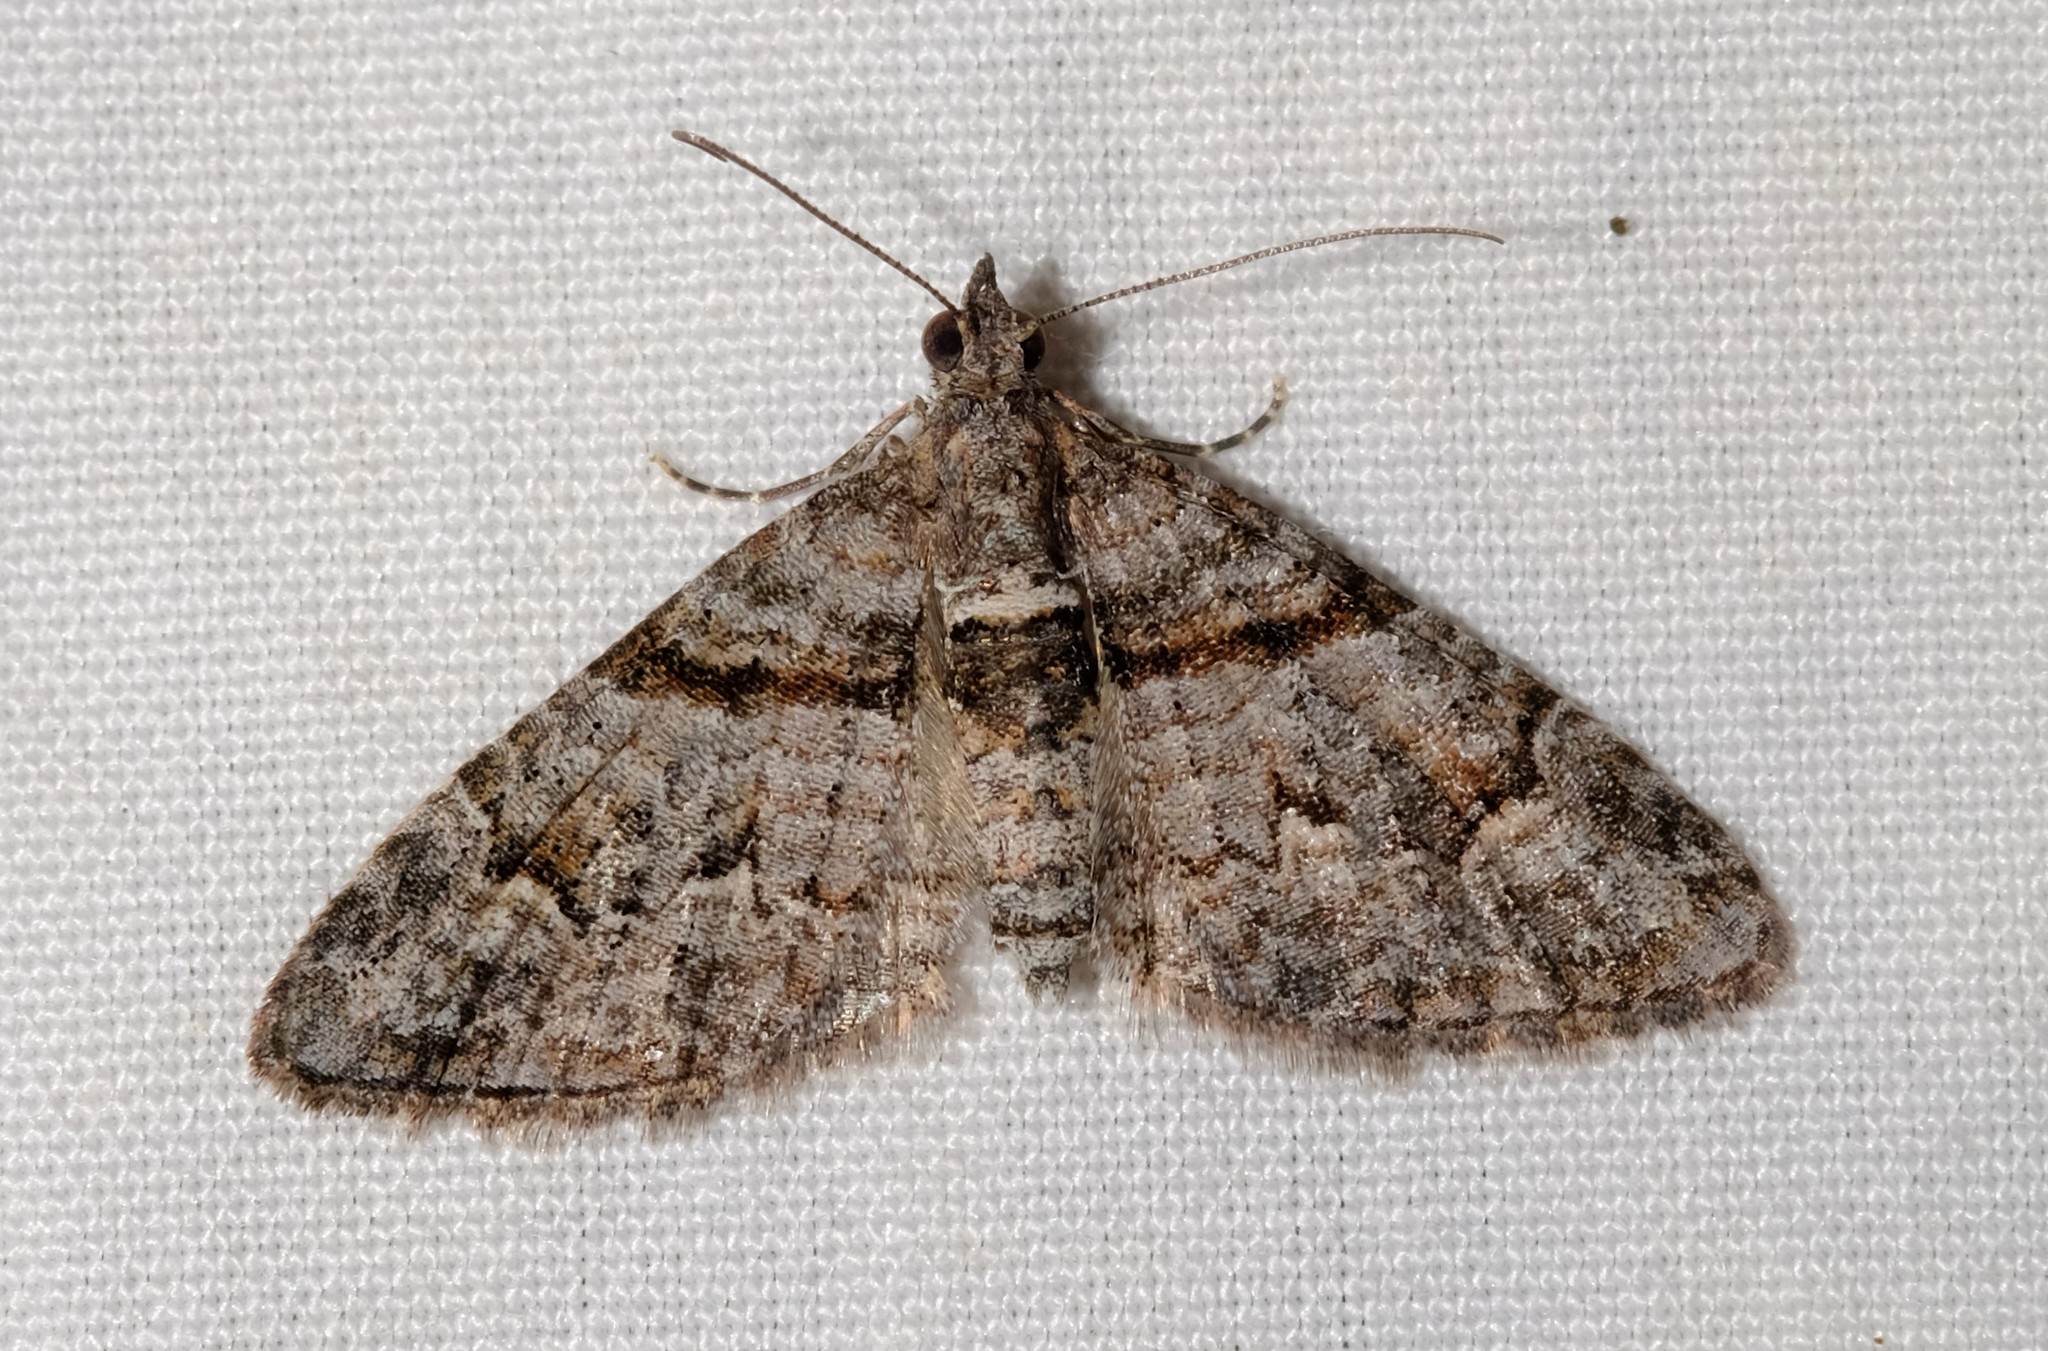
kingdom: Animalia
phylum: Arthropoda
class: Insecta
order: Lepidoptera
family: Geometridae
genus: Phrissogonus
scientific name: Phrissogonus laticostata
